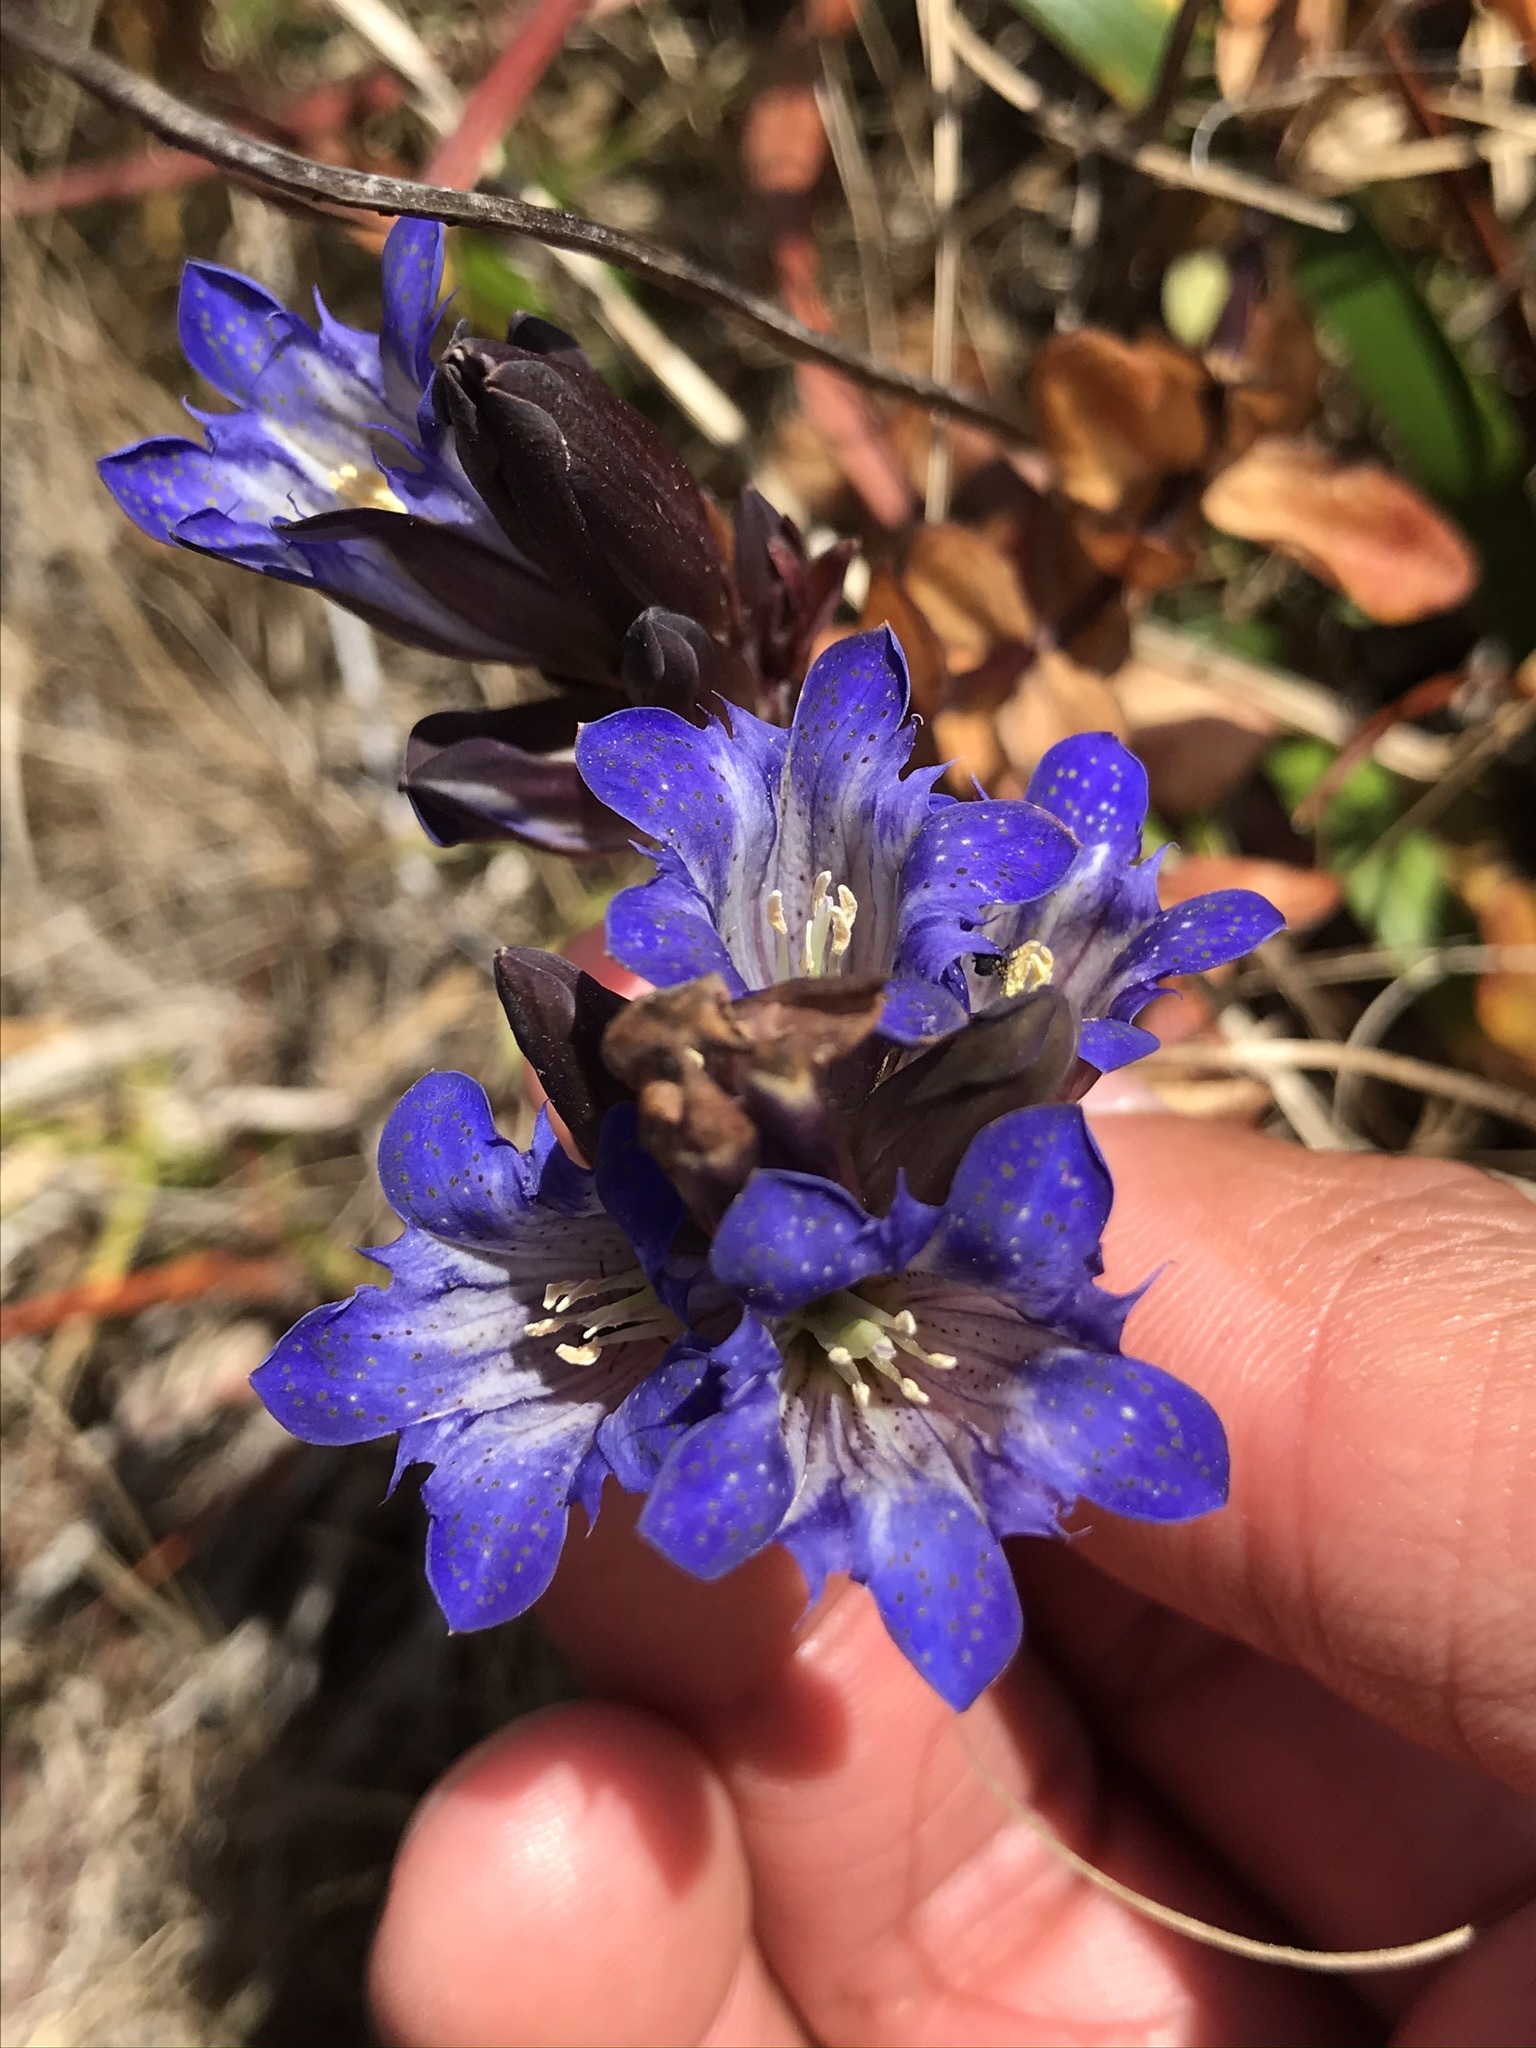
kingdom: Plantae
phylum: Tracheophyta
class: Magnoliopsida
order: Gentianales
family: Gentianaceae
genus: Gentiana
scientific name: Gentiana affinis
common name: Rocky mountain gentian
